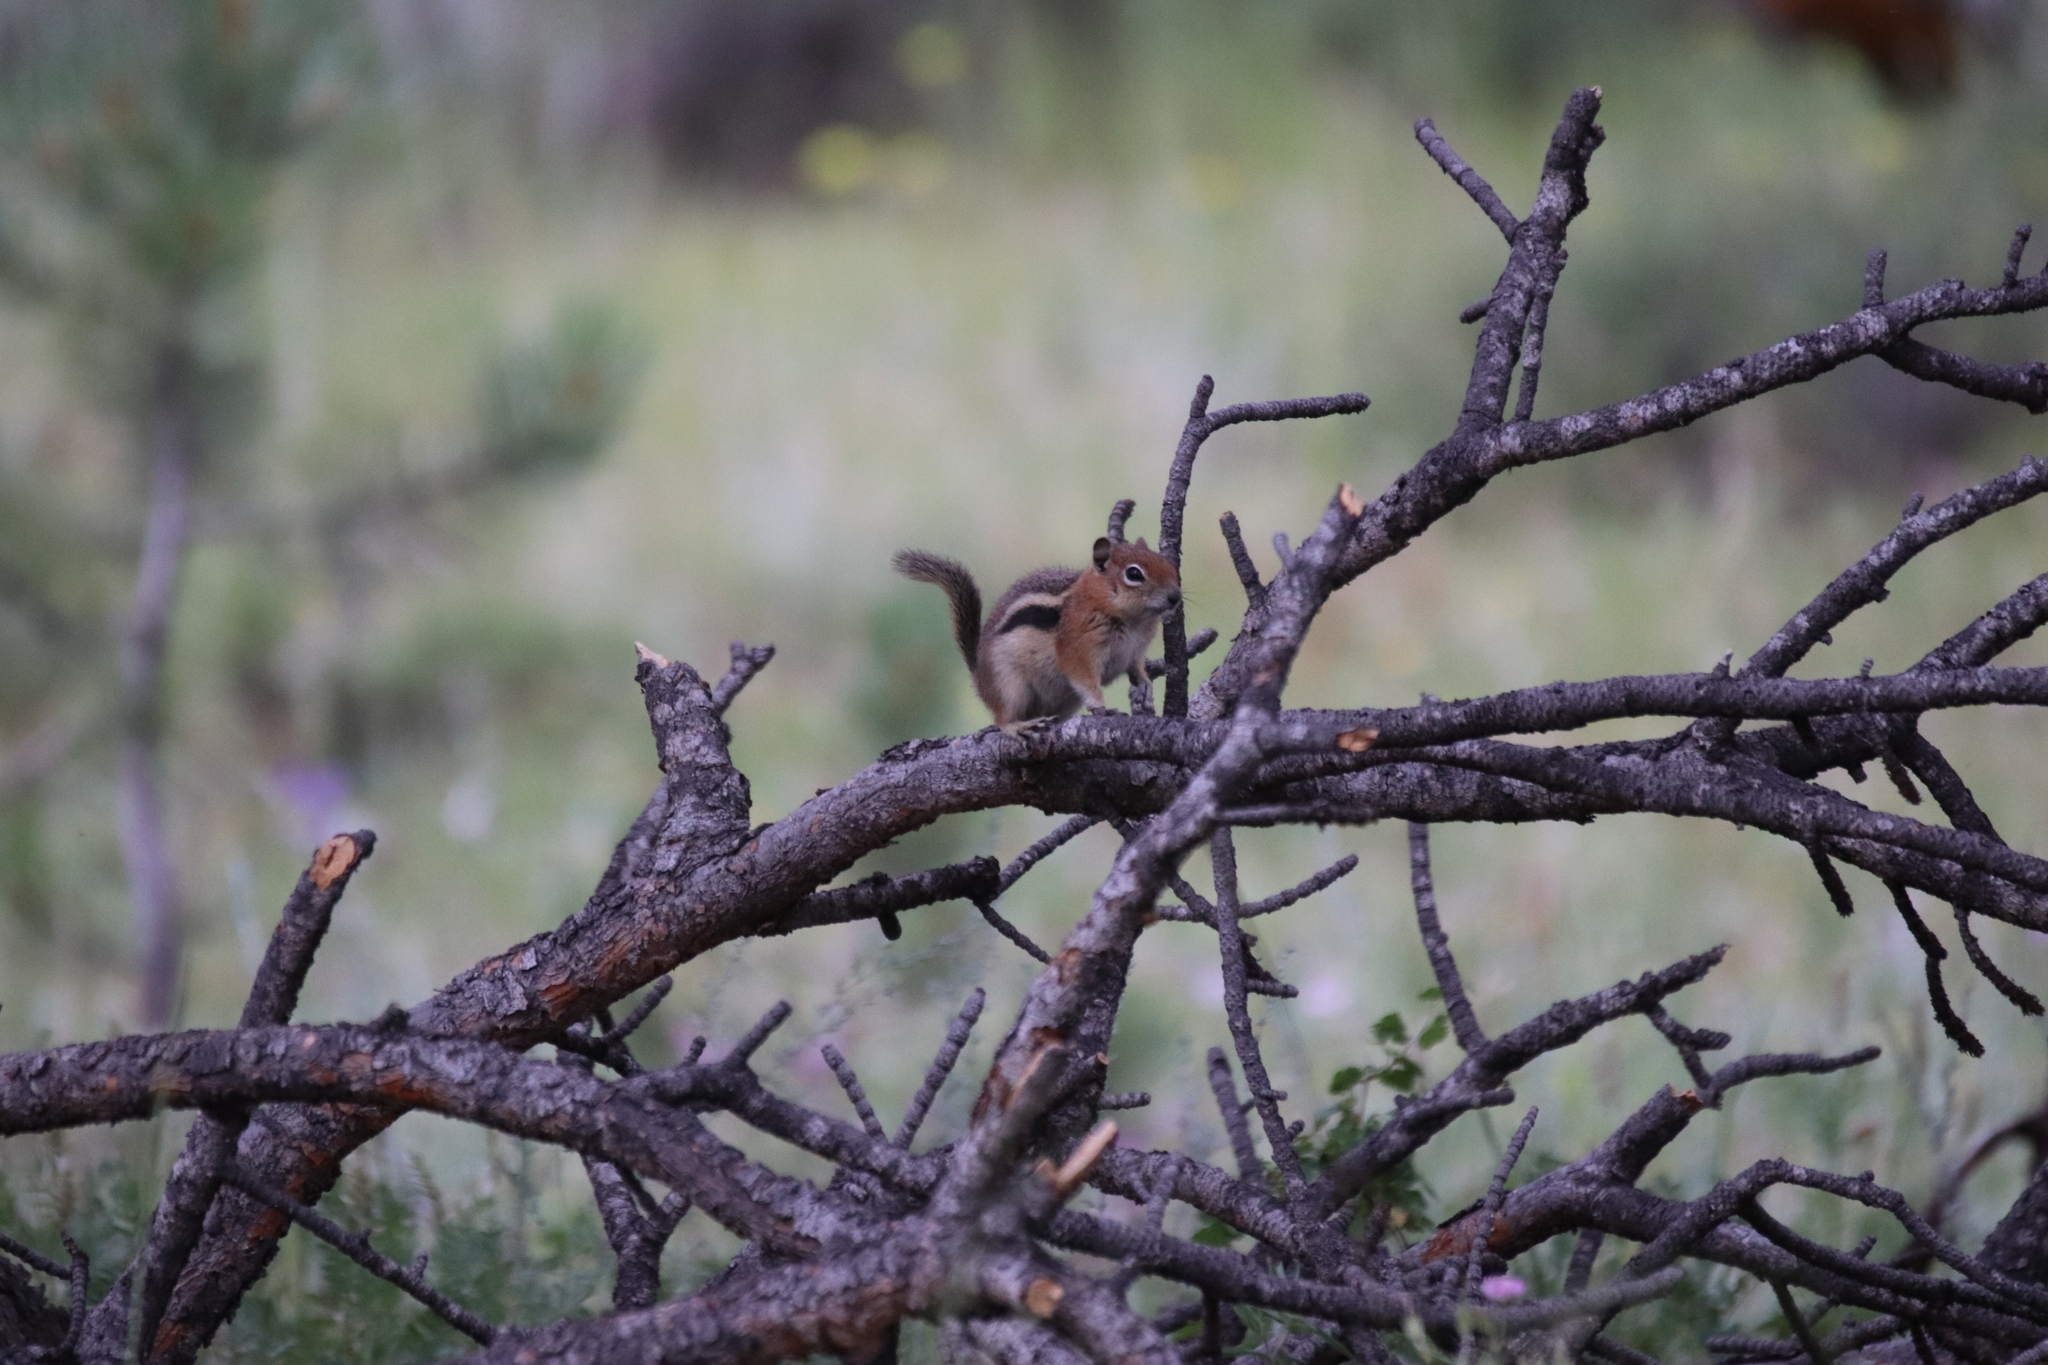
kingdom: Animalia
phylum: Chordata
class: Mammalia
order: Rodentia
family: Sciuridae
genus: Callospermophilus
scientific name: Callospermophilus lateralis
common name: Golden-mantled ground squirrel
